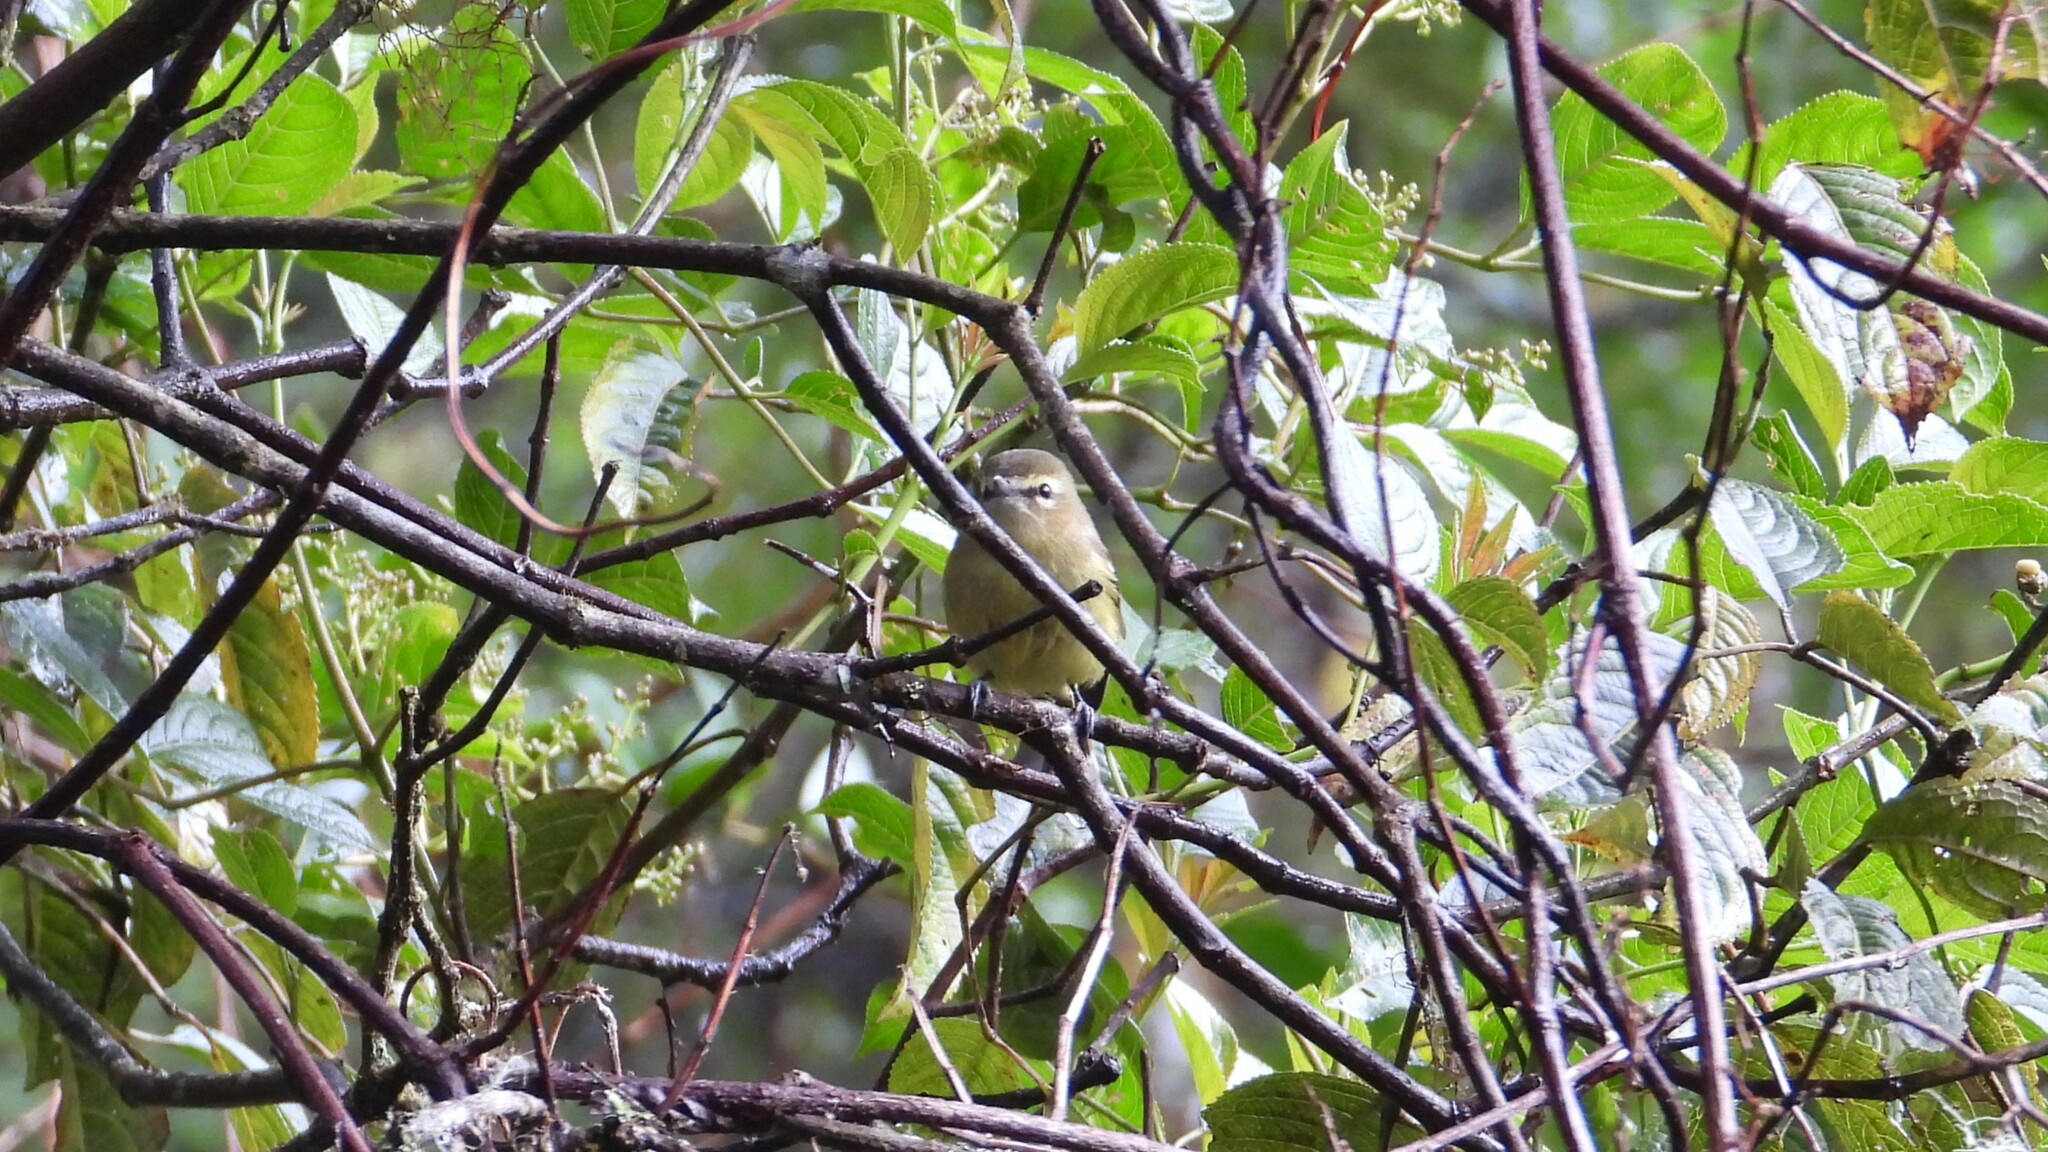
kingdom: Animalia
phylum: Chordata
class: Aves
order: Passeriformes
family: Vireonidae
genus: Vireo
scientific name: Vireo carmioli
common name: Yellow-winged vireo
